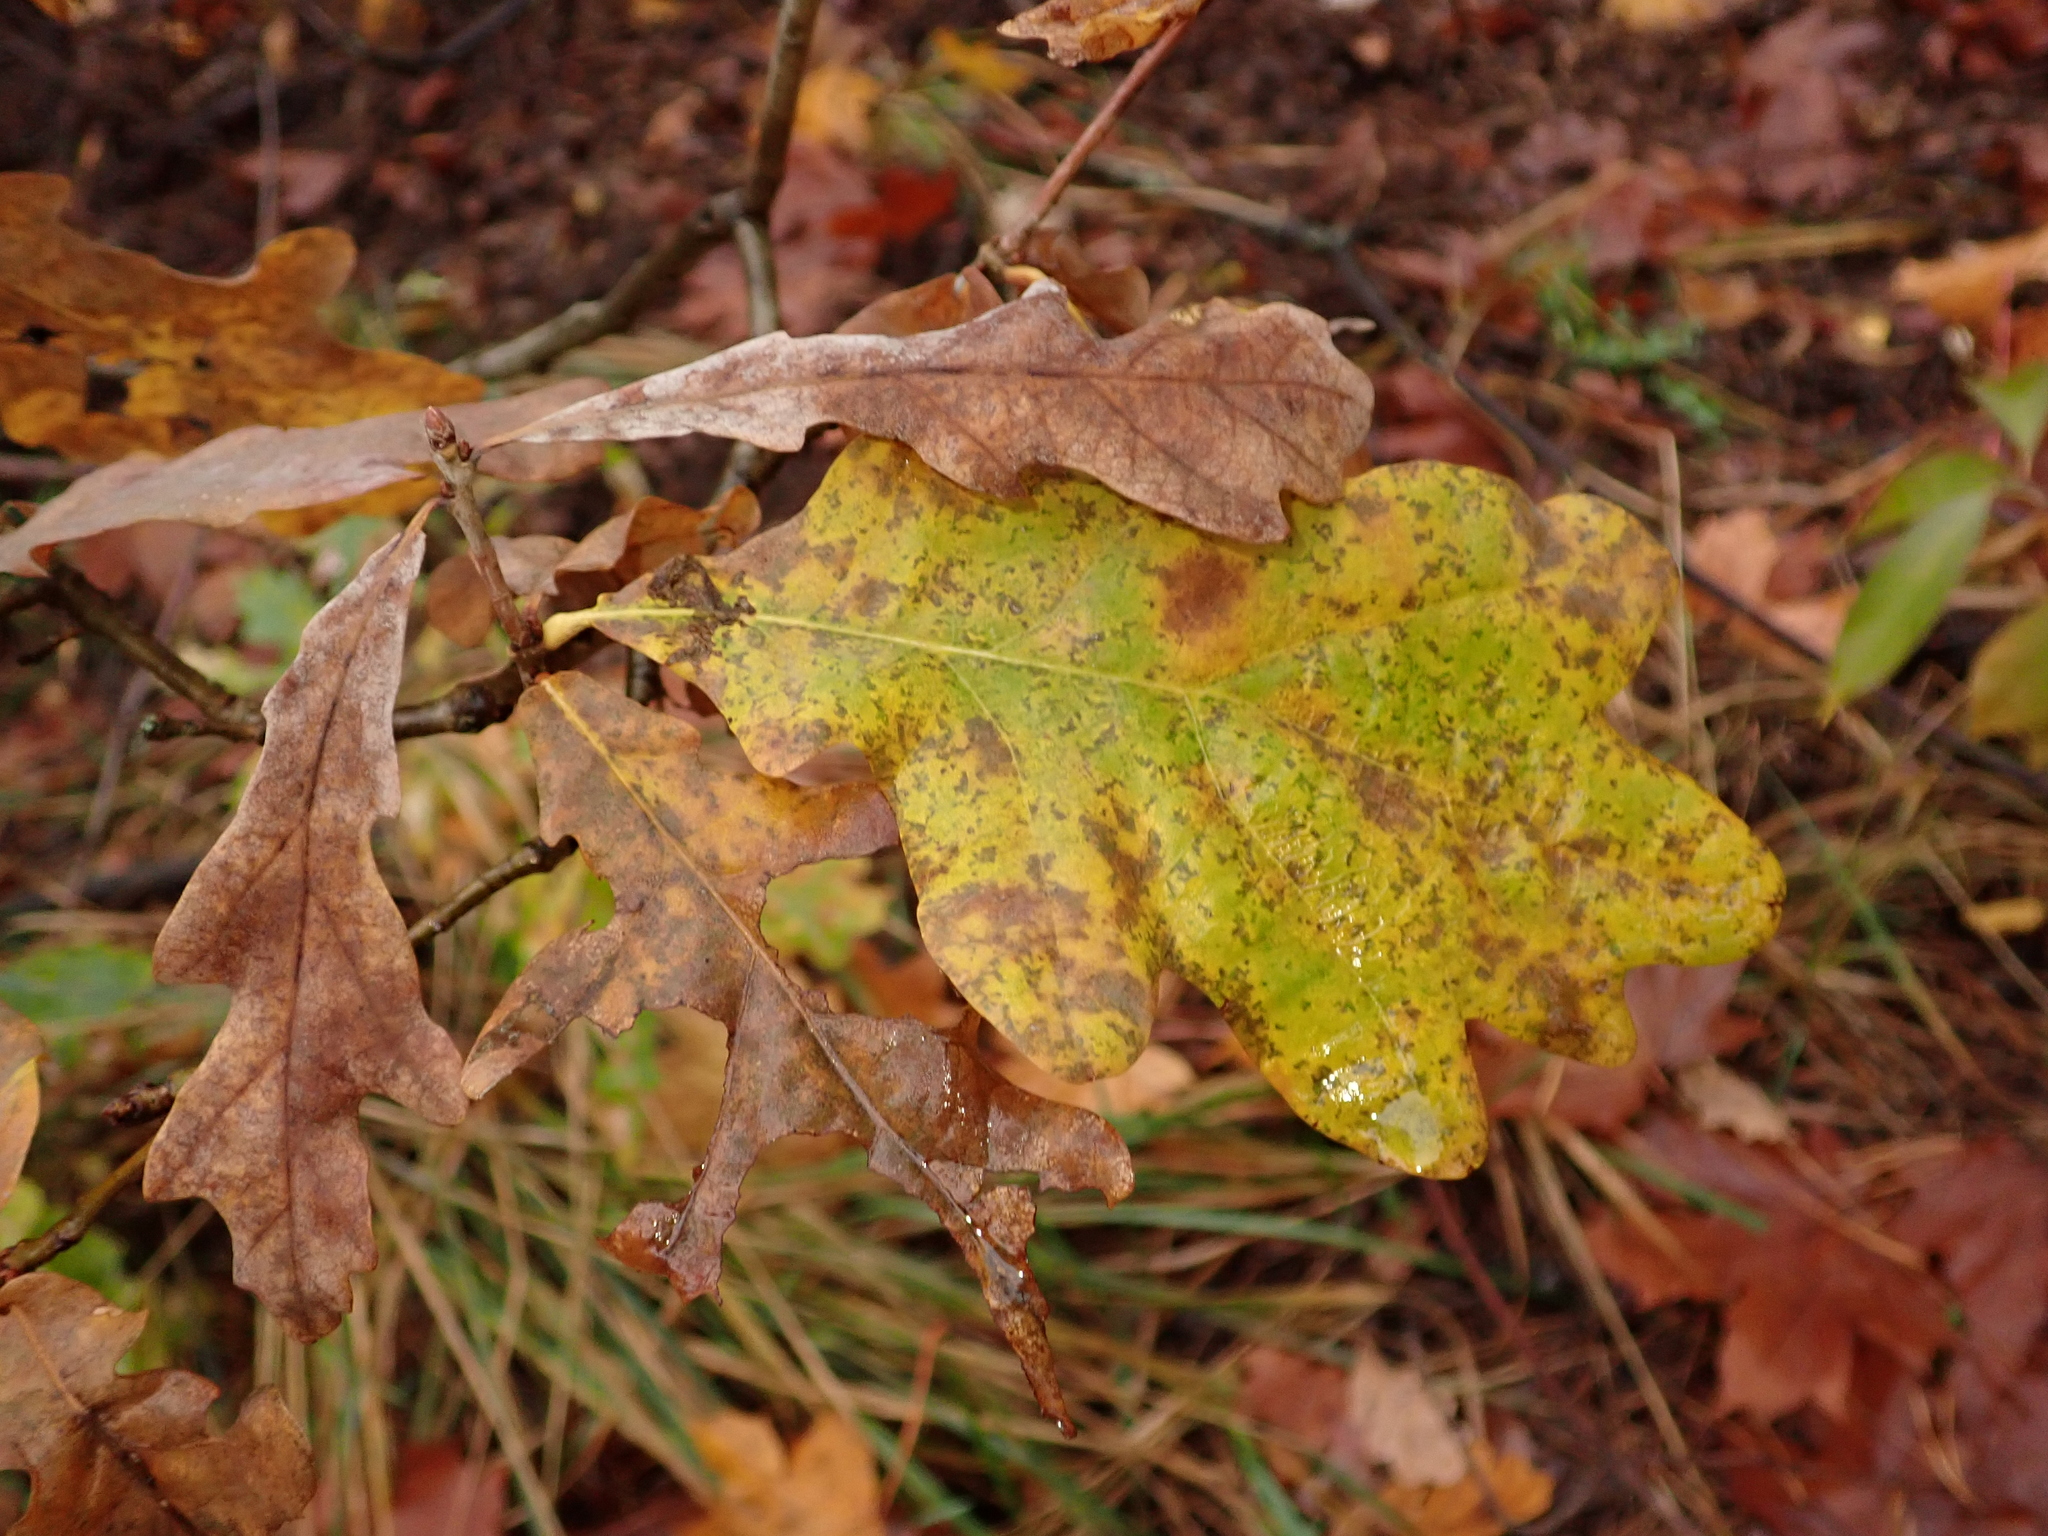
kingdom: Plantae
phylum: Tracheophyta
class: Magnoliopsida
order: Fagales
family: Fagaceae
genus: Quercus
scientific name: Quercus robur
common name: Pedunculate oak
